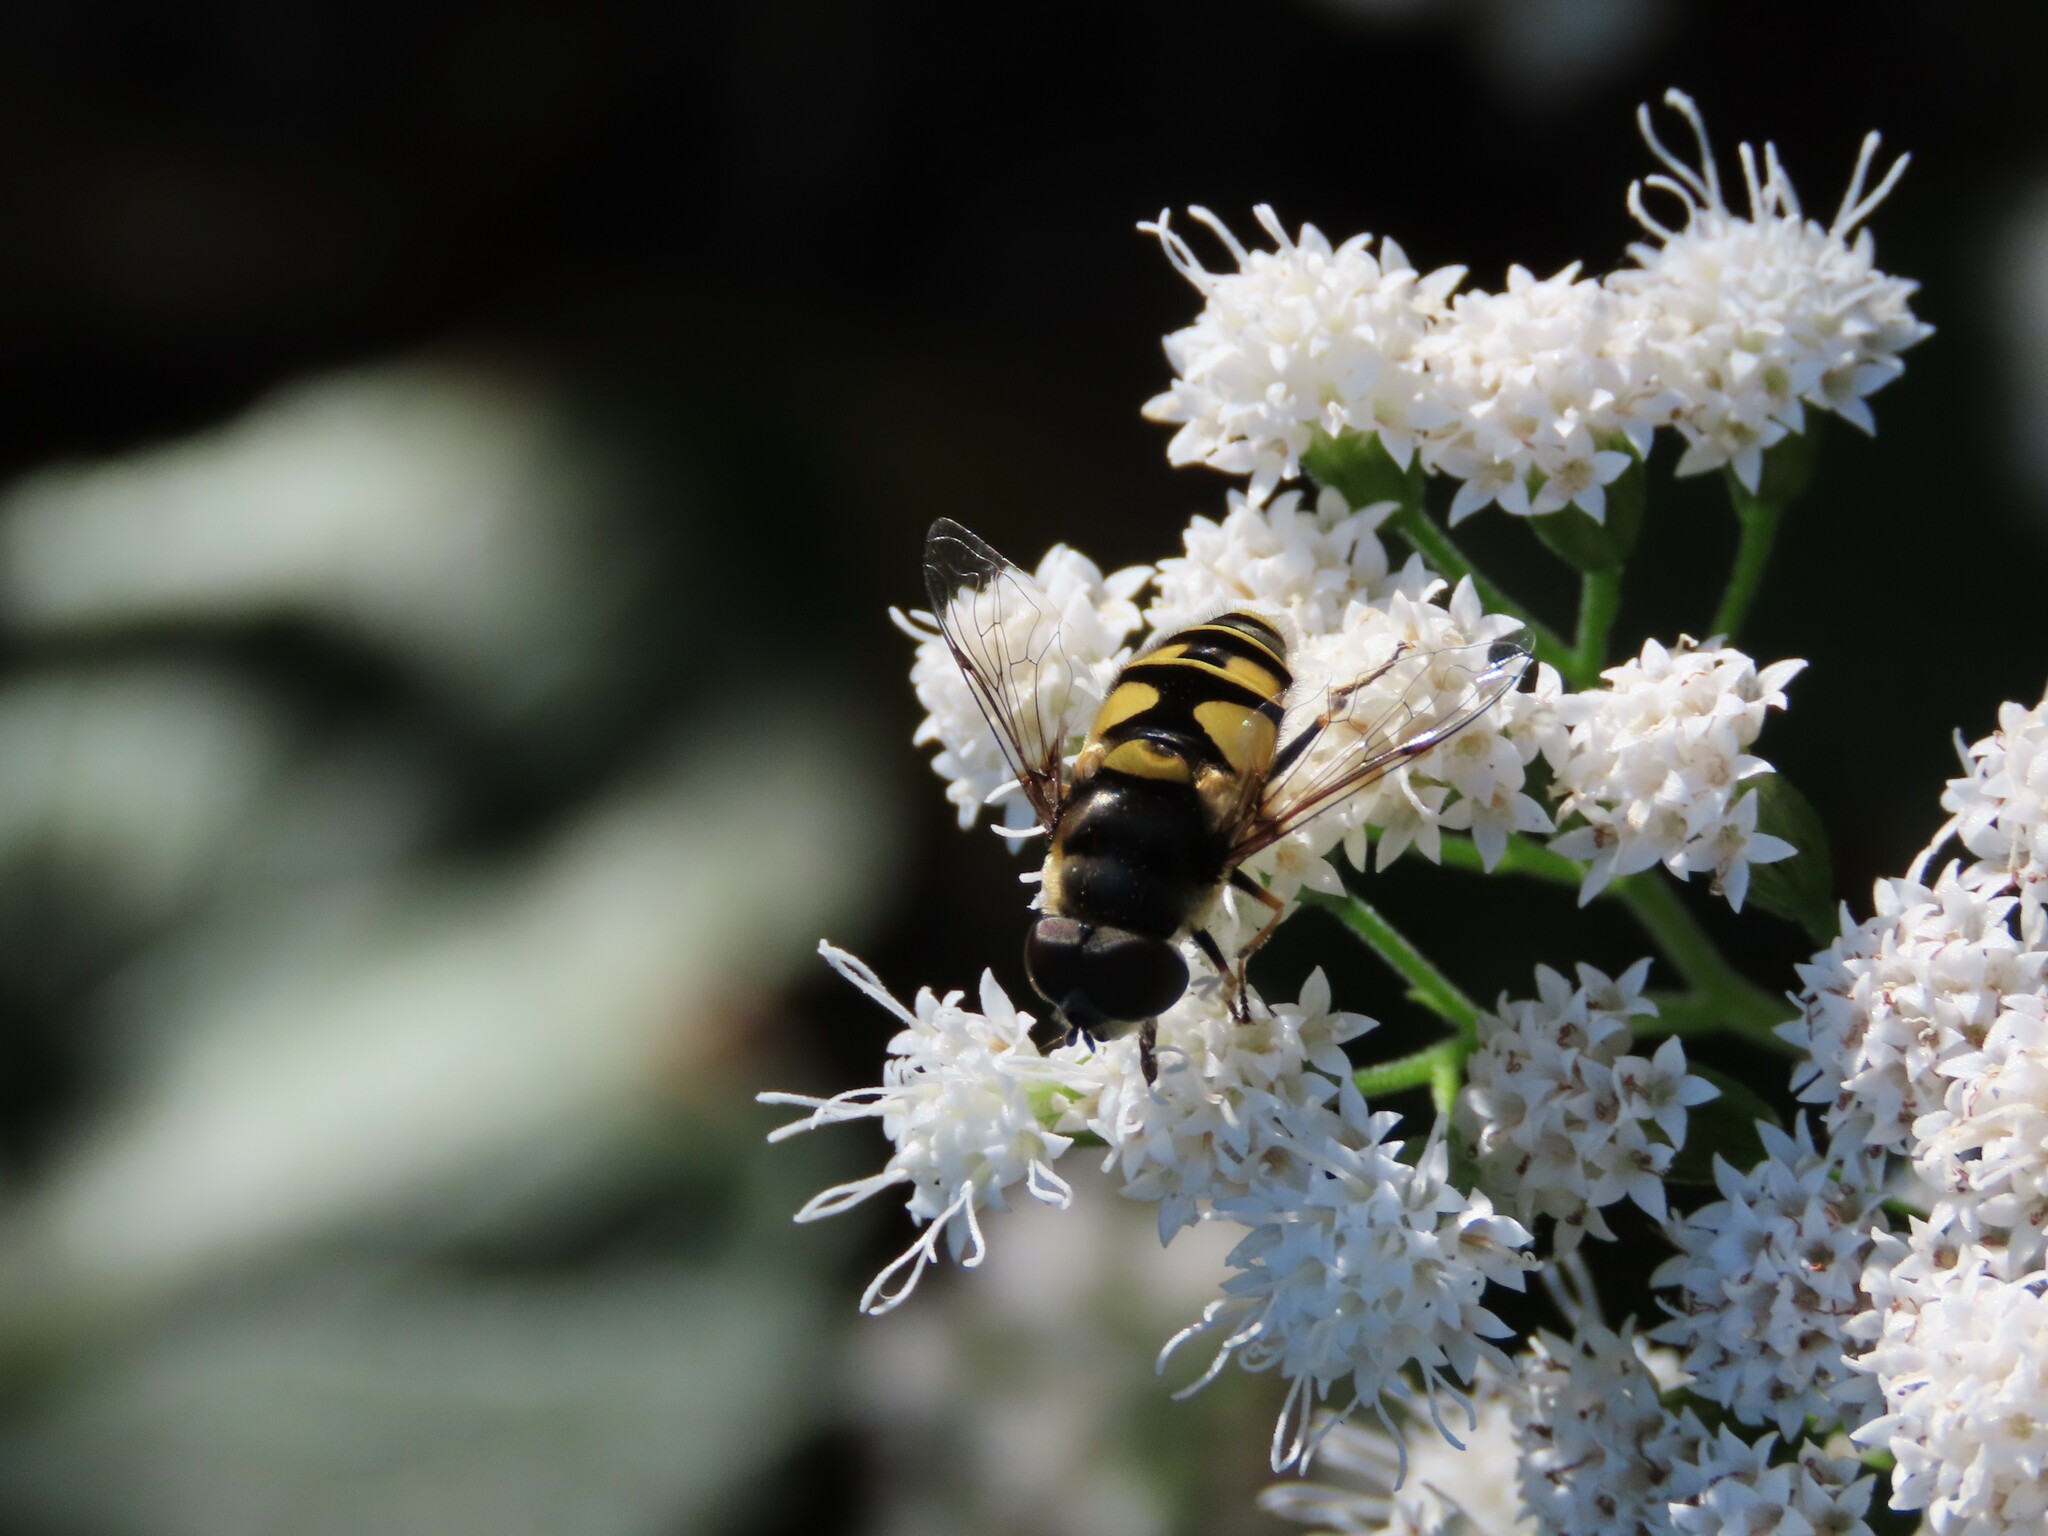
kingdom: Animalia
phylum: Arthropoda
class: Insecta
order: Diptera
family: Syrphidae
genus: Eristalis
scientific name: Eristalis transversa
